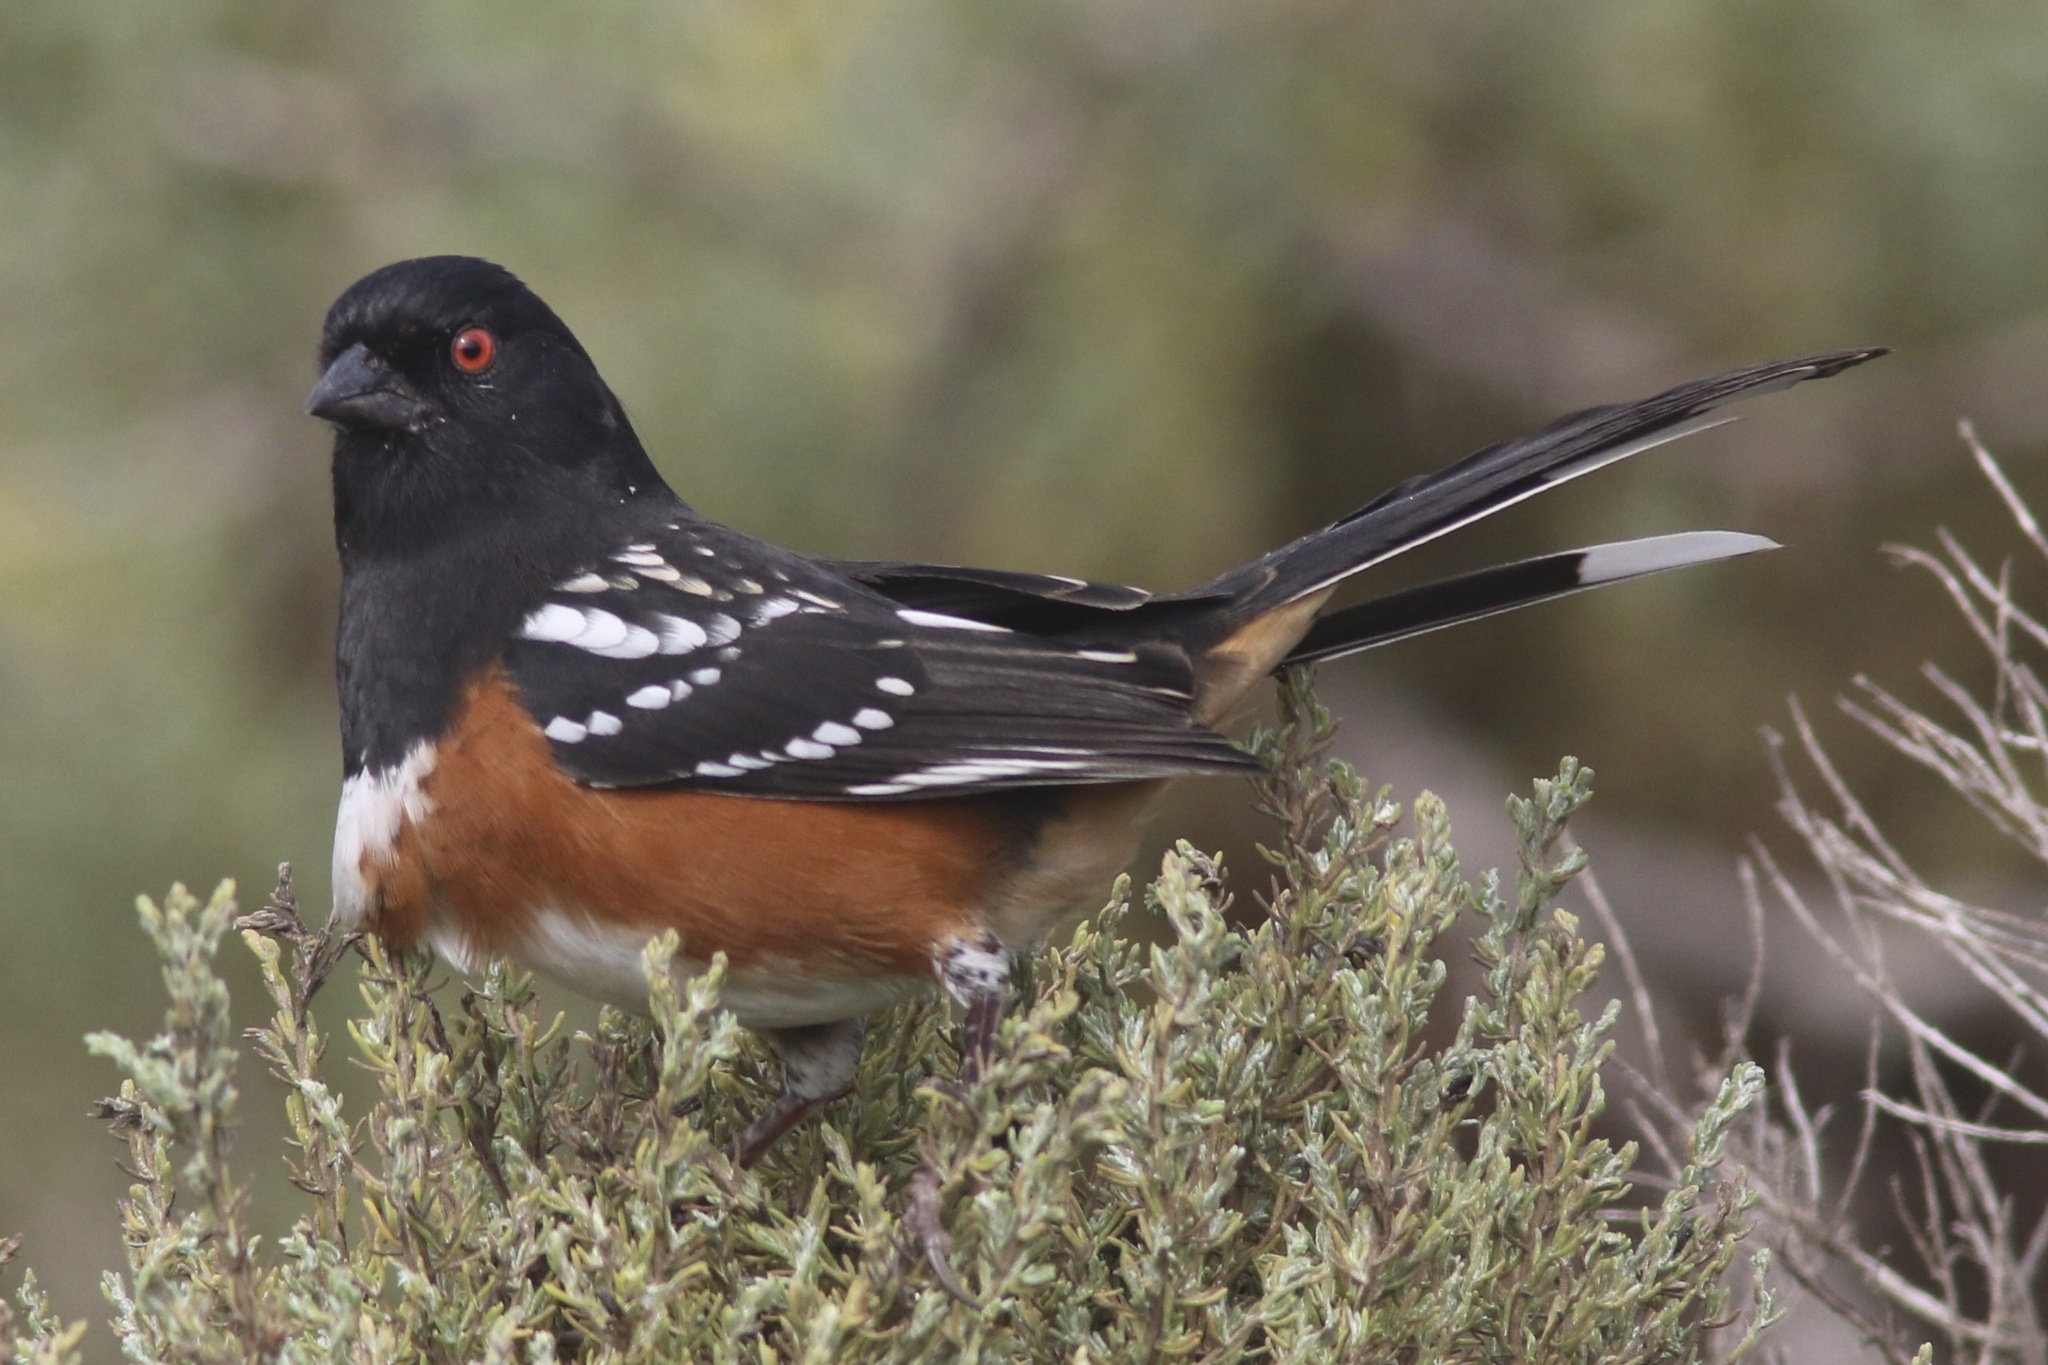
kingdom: Animalia
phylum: Chordata
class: Aves
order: Passeriformes
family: Passerellidae
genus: Pipilo
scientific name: Pipilo maculatus
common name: Spotted towhee
